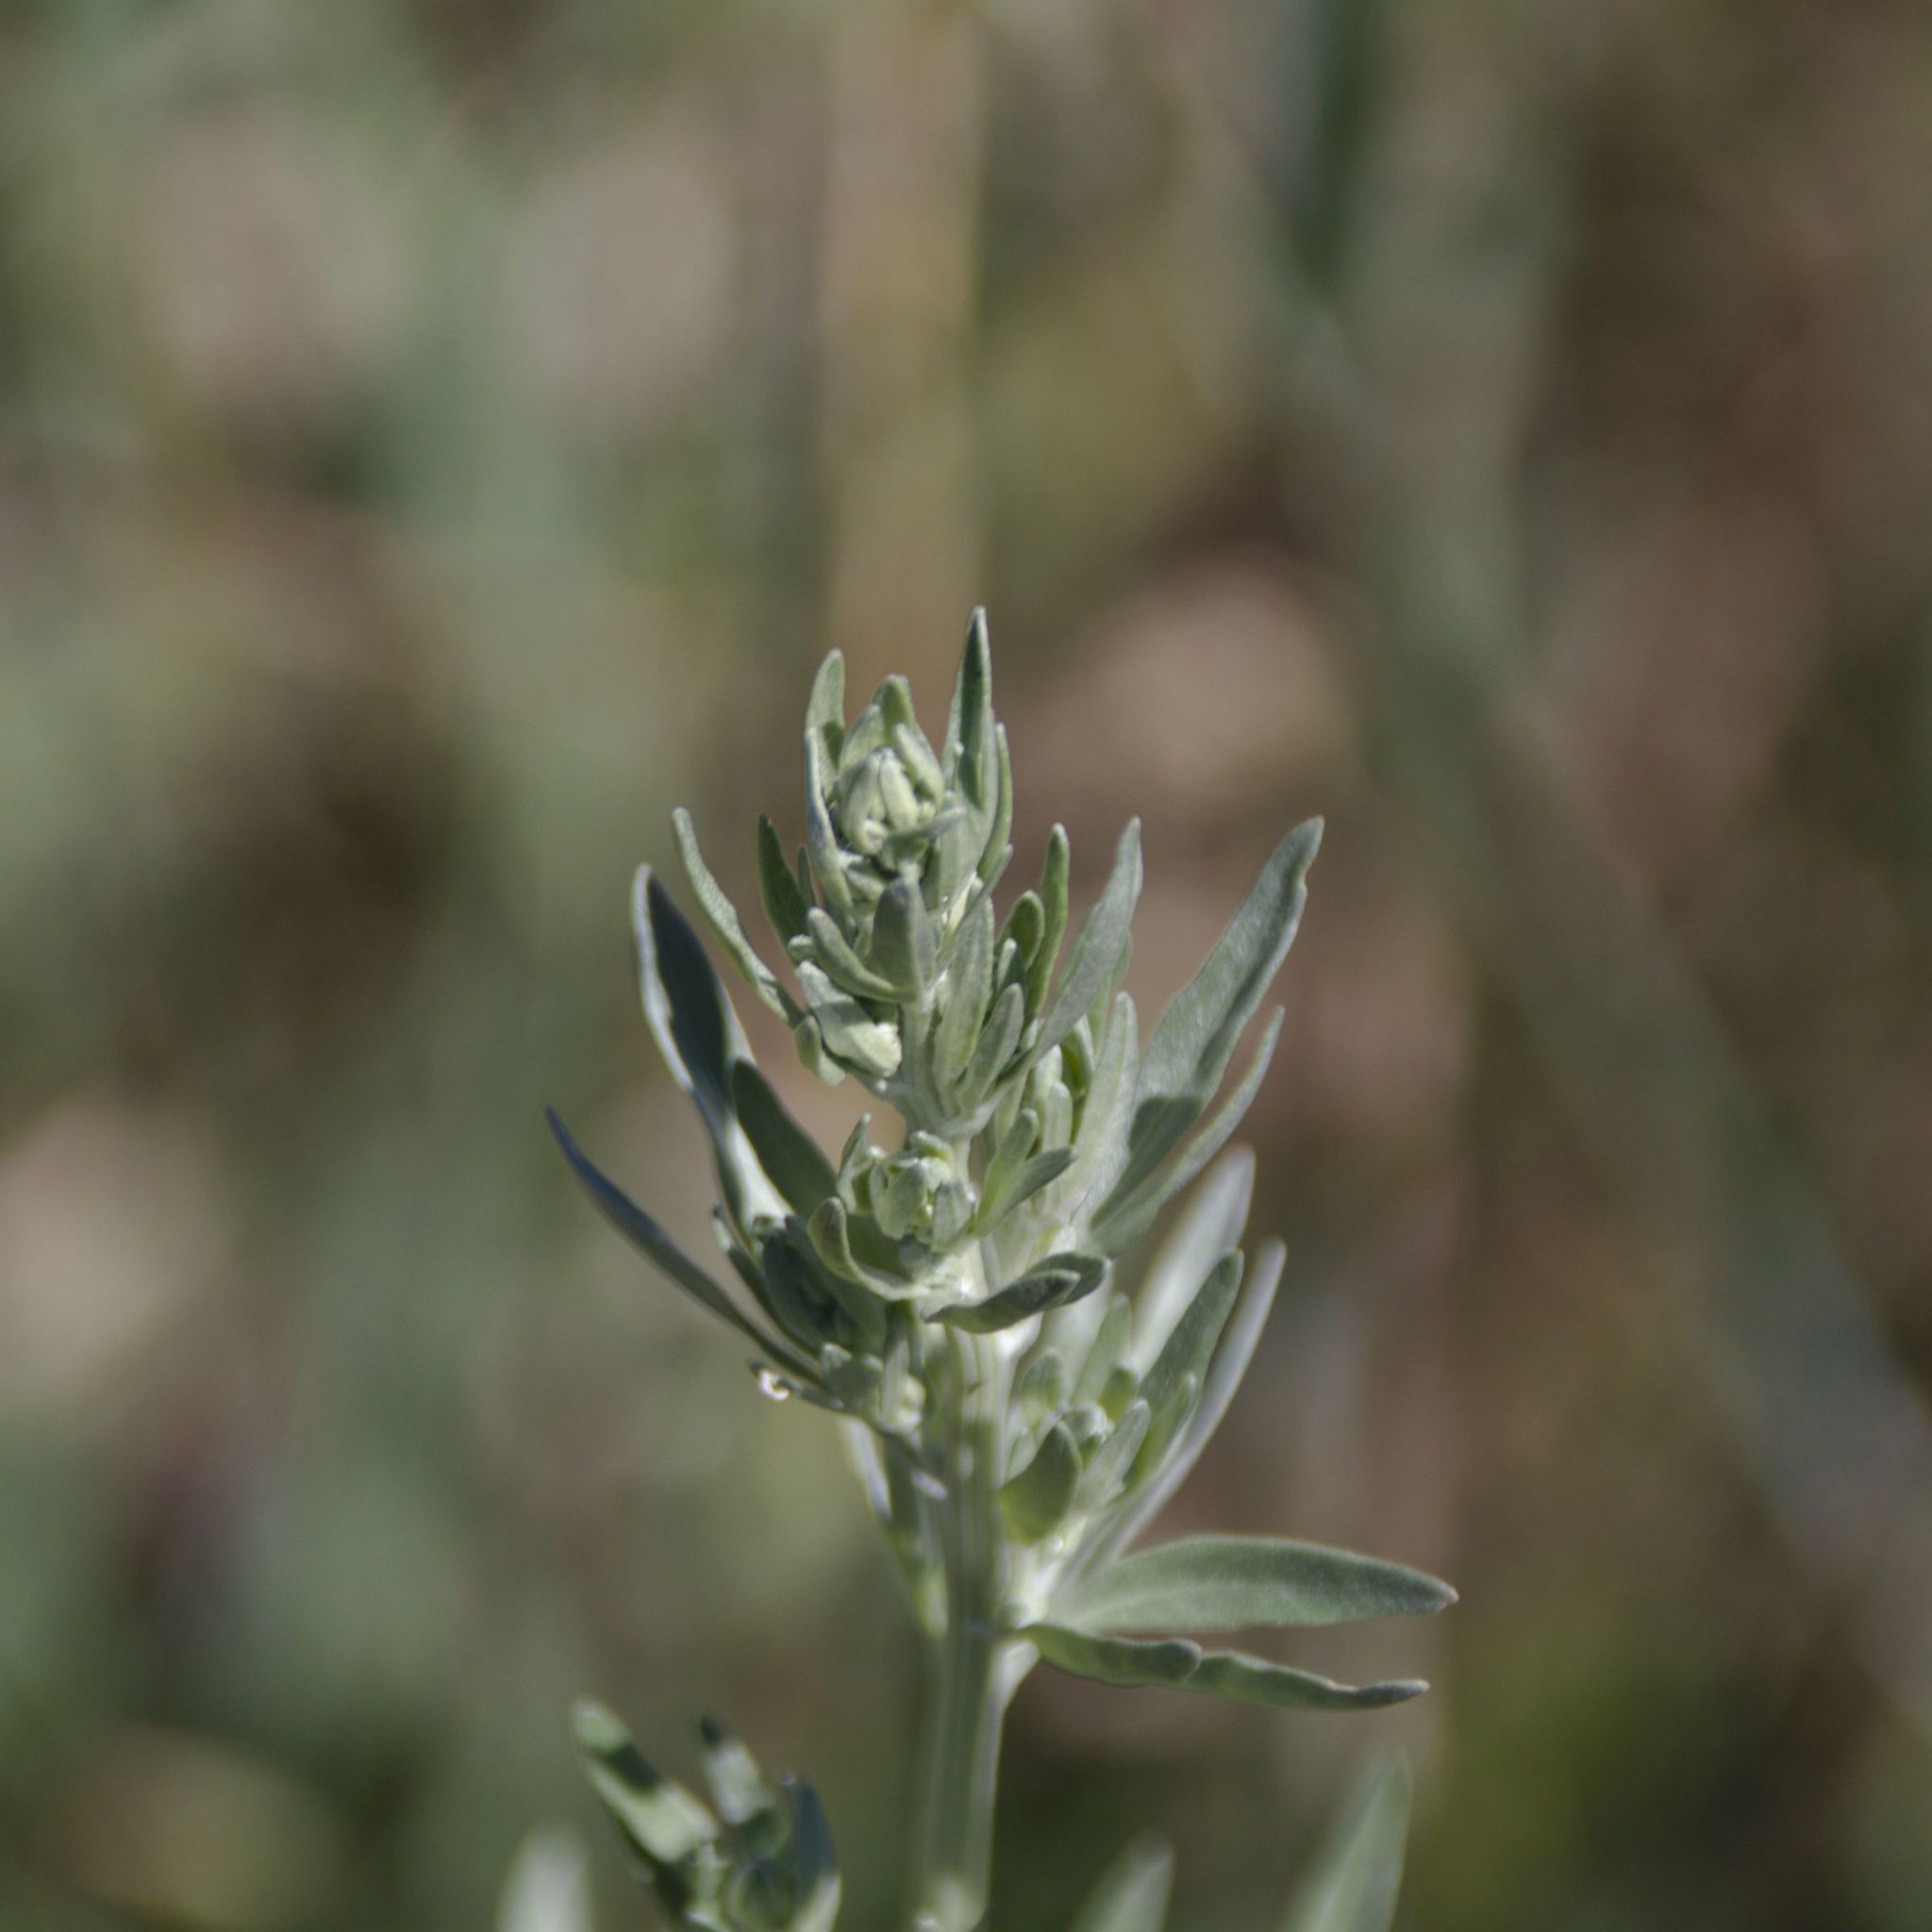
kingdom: Plantae
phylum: Tracheophyta
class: Magnoliopsida
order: Asterales
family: Asteraceae
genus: Artemisia
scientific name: Artemisia absinthium
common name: Wormwood
